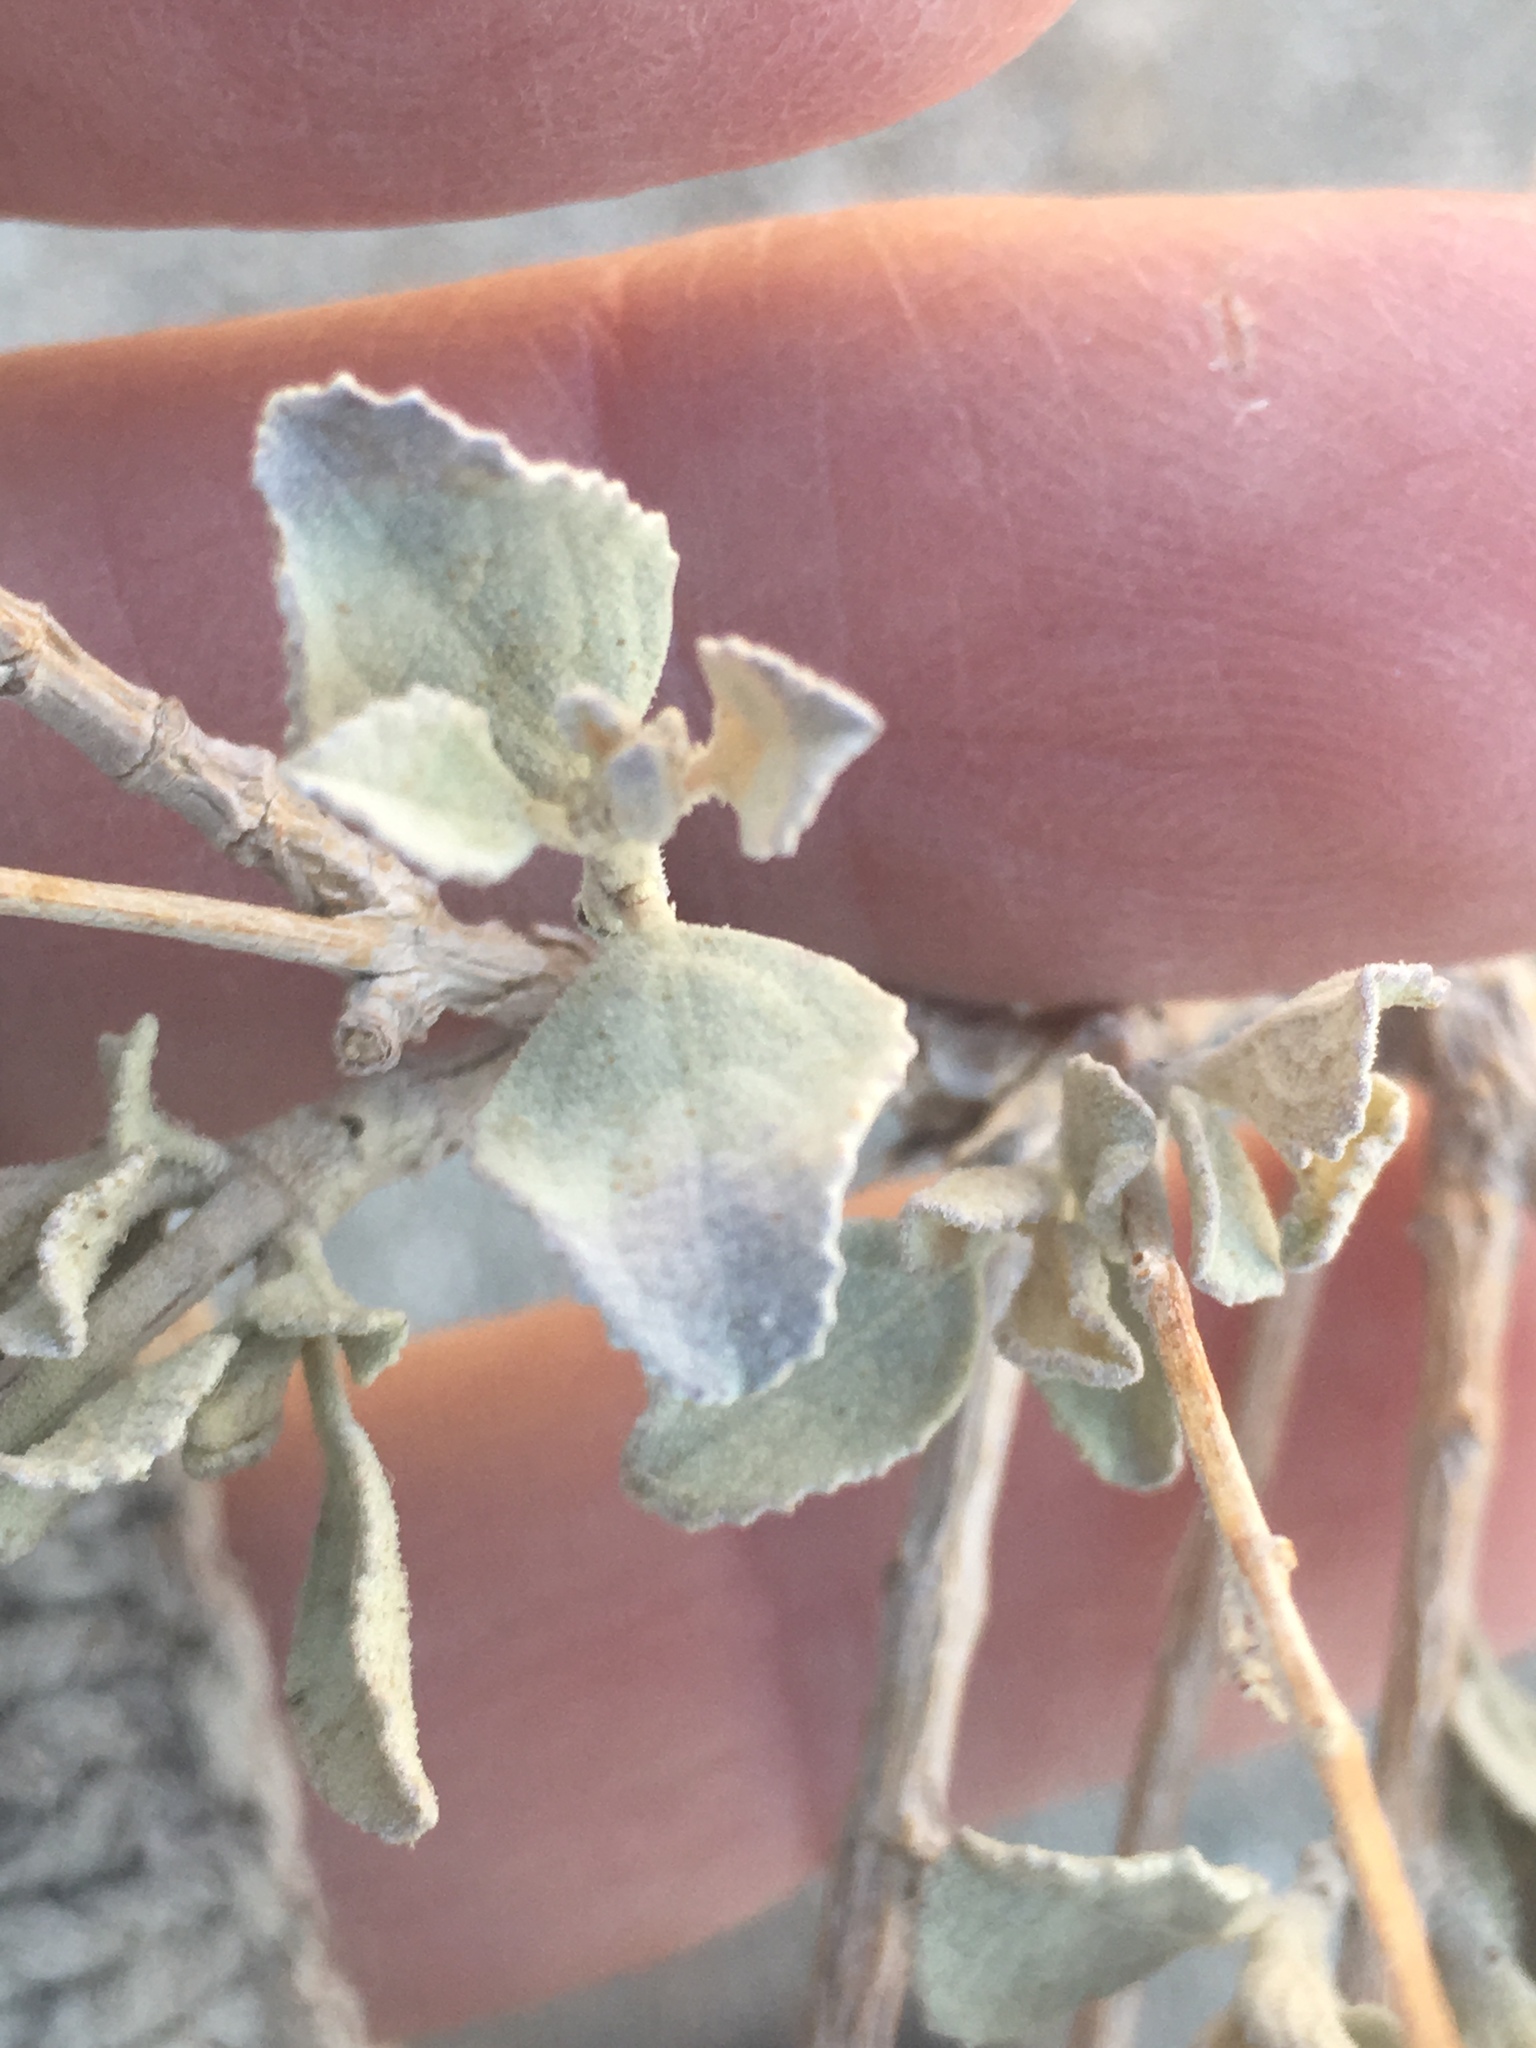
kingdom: Plantae
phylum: Tracheophyta
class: Magnoliopsida
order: Lamiales
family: Lamiaceae
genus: Condea
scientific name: Condea emoryi
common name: Chia
